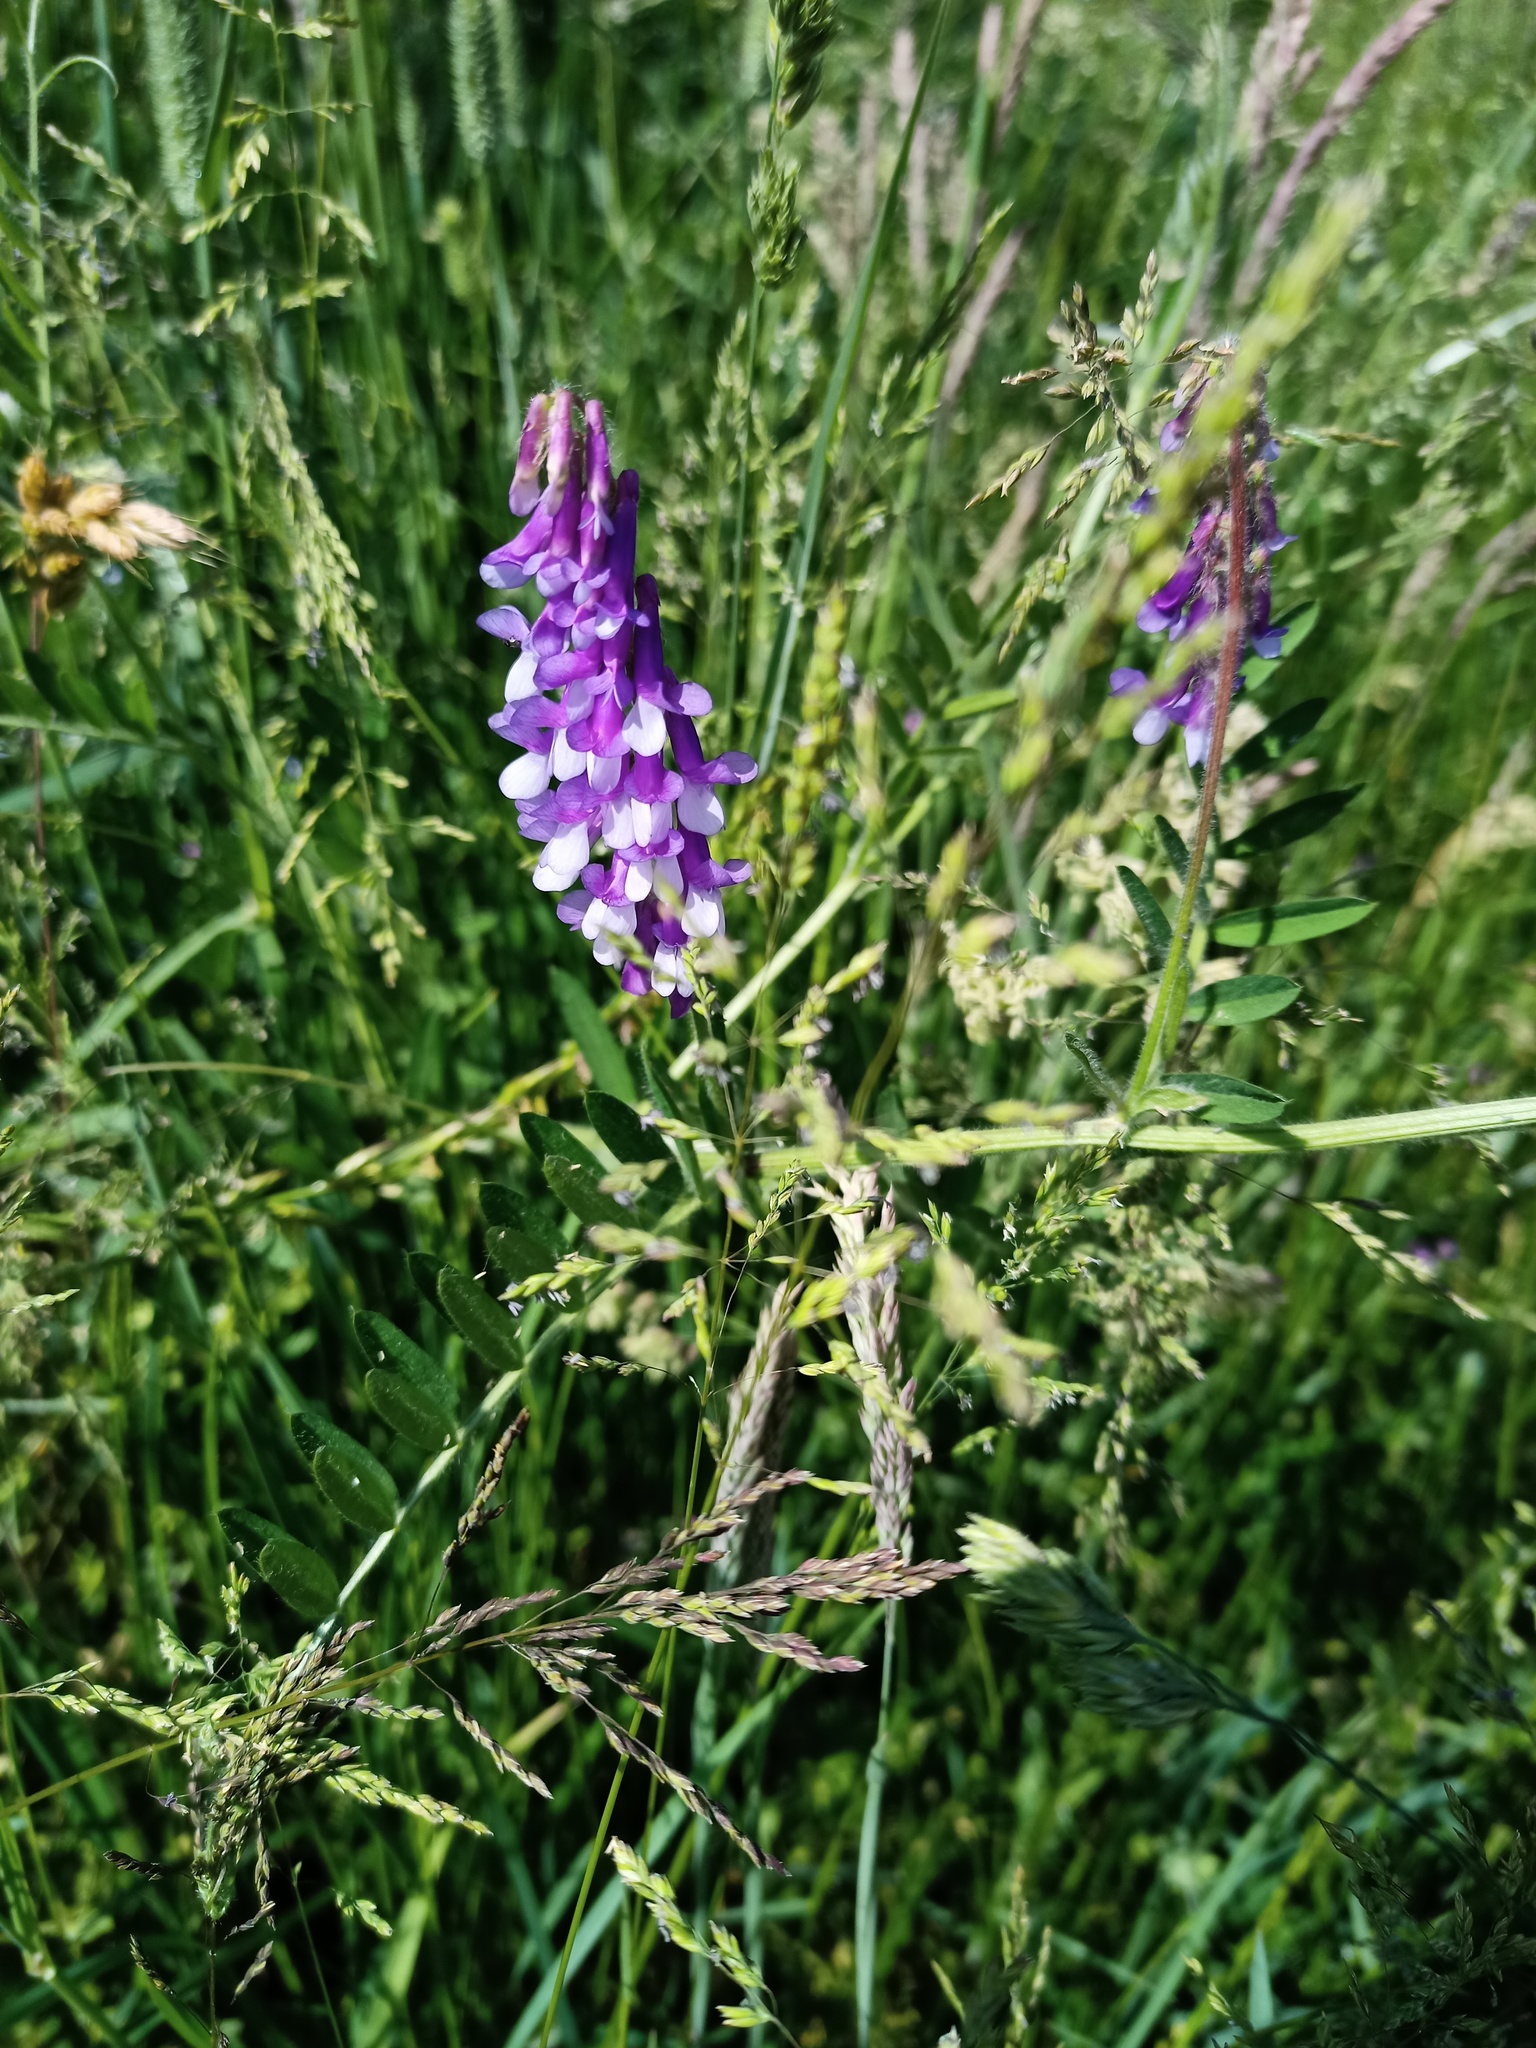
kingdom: Plantae
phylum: Tracheophyta
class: Magnoliopsida
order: Fabales
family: Fabaceae
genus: Vicia
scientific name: Vicia villosa
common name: Fodder vetch
